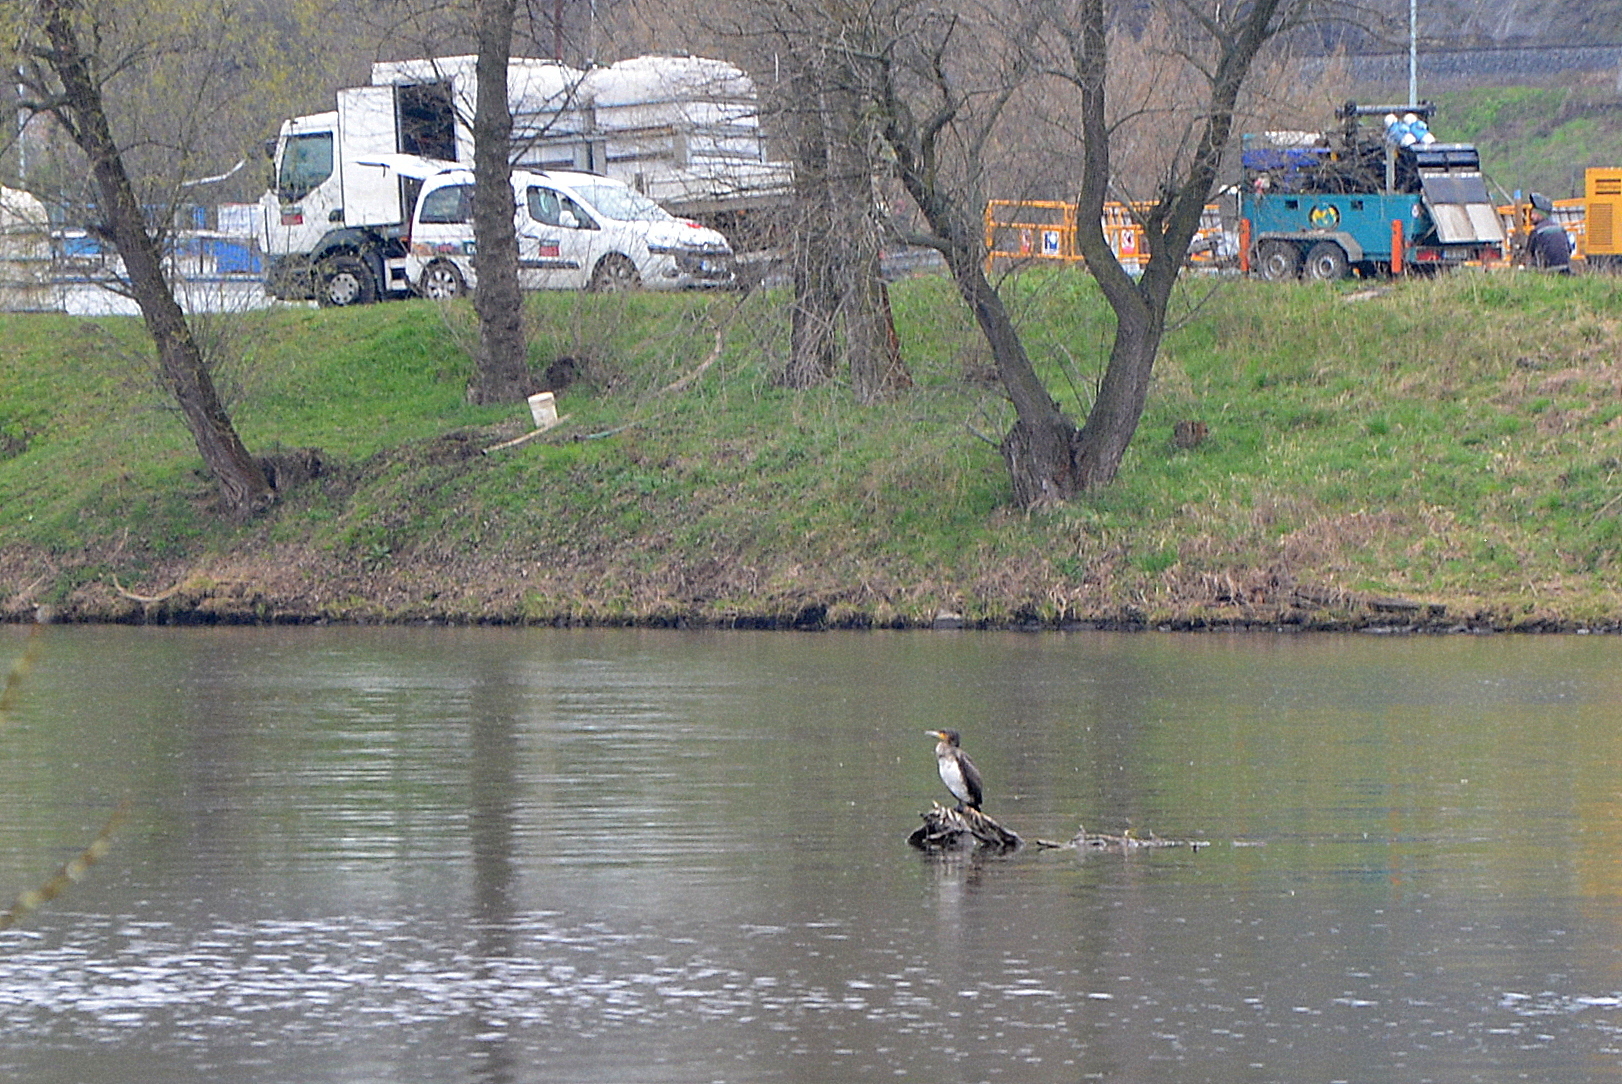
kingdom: Animalia
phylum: Chordata
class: Aves
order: Suliformes
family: Phalacrocoracidae
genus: Phalacrocorax
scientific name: Phalacrocorax carbo
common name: Great cormorant
